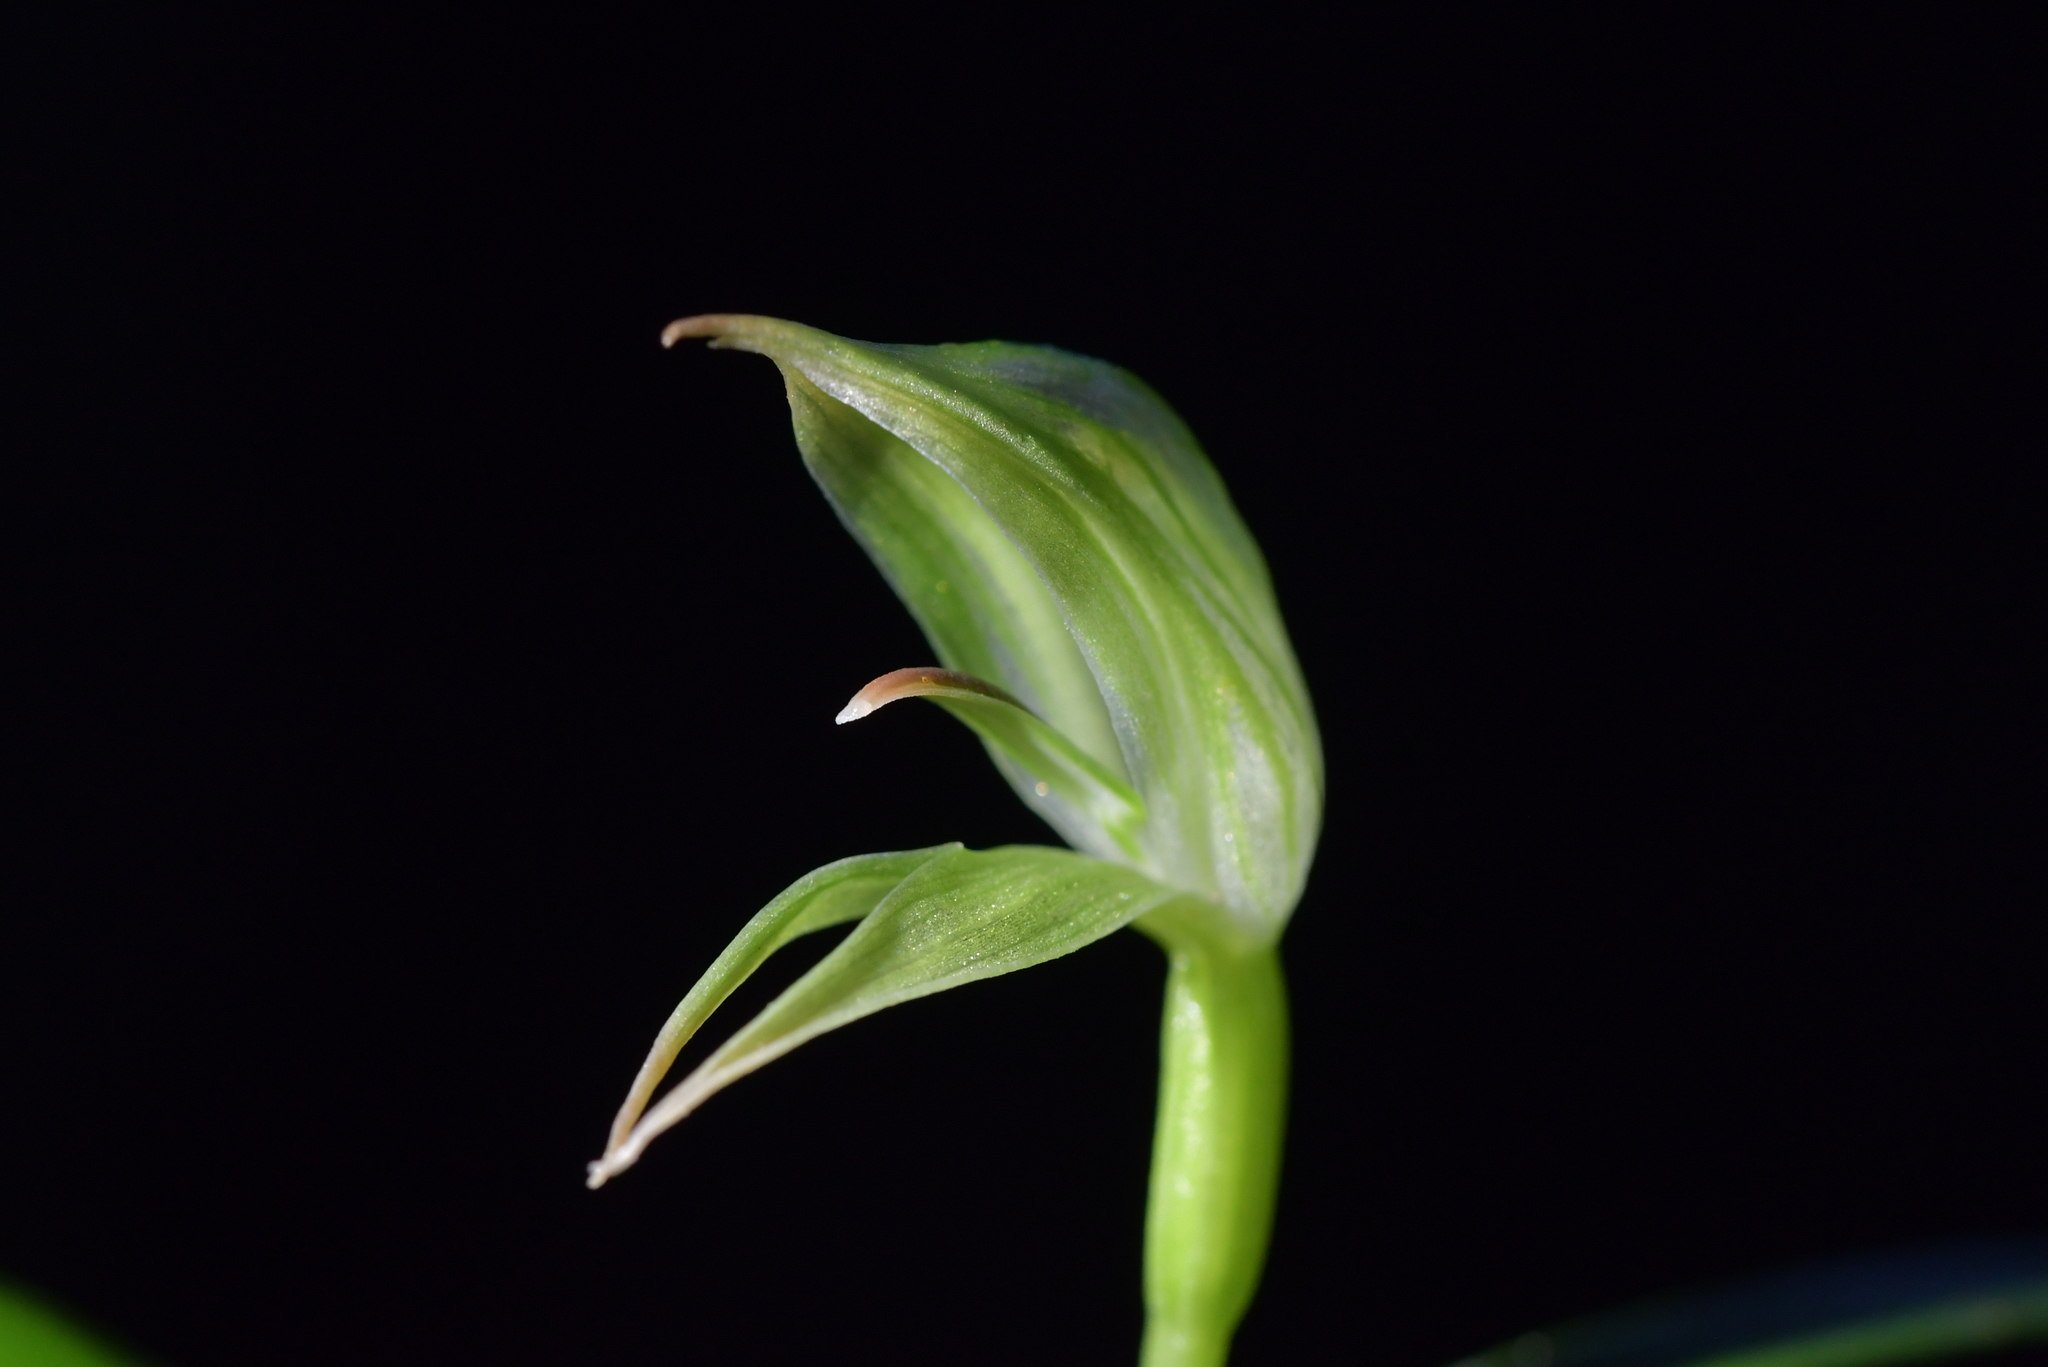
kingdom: Plantae
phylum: Tracheophyta
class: Liliopsida
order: Asparagales
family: Orchidaceae
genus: Pterostylis
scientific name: Pterostylis porrecta
